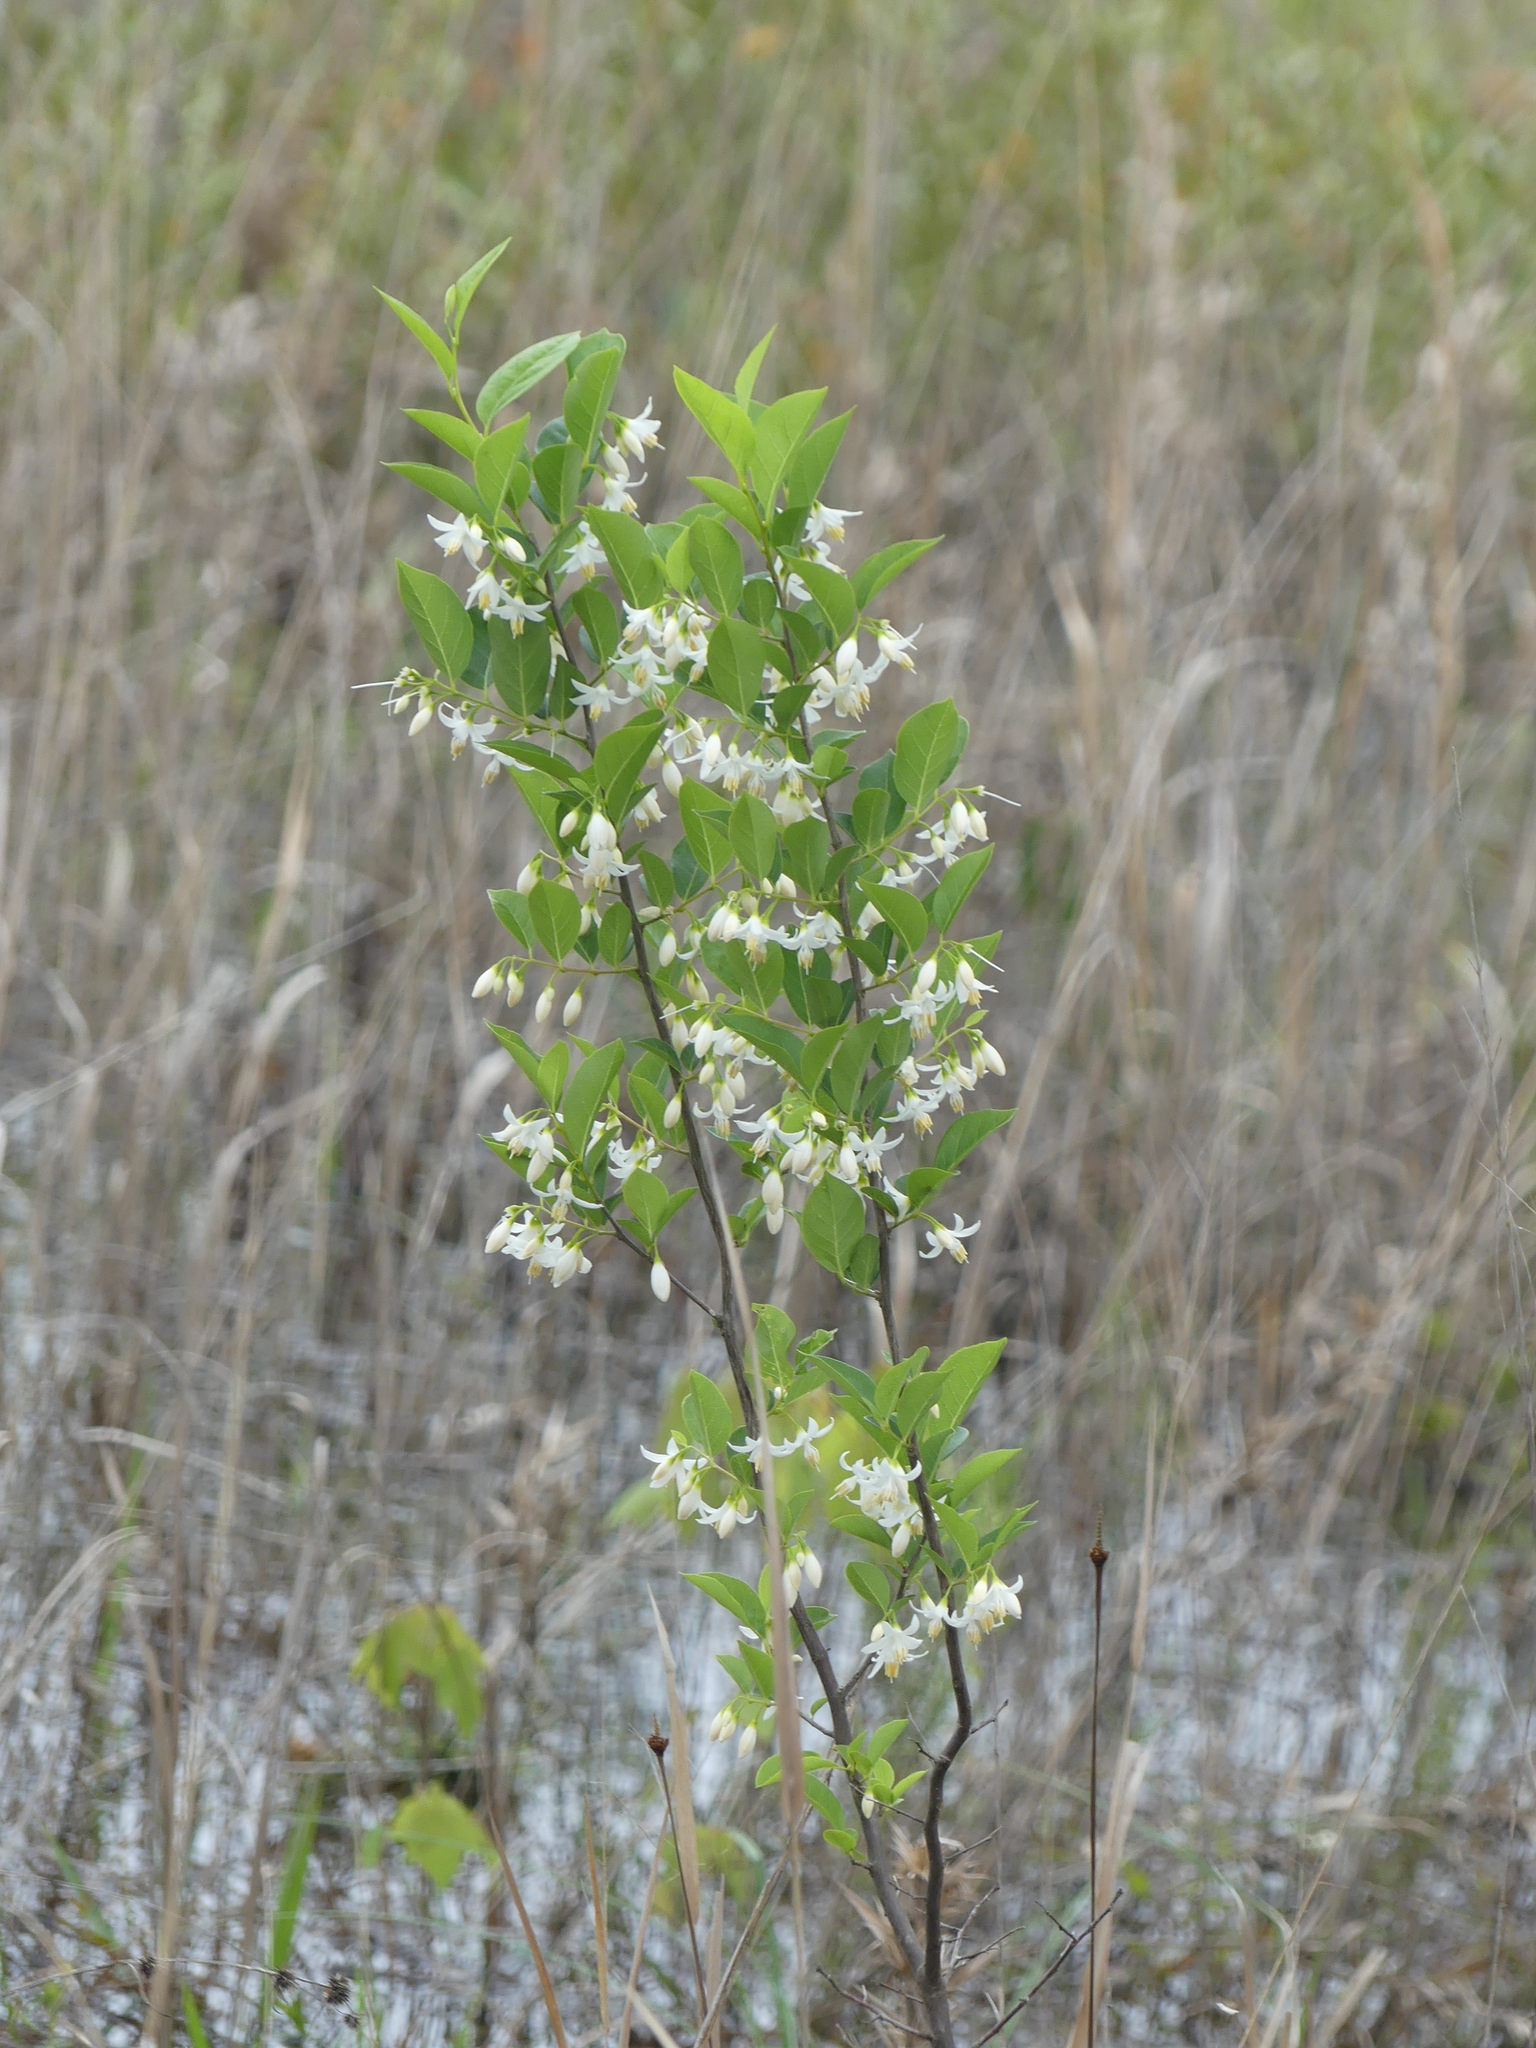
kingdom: Plantae
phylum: Tracheophyta
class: Magnoliopsida
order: Ericales
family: Styracaceae
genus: Styrax
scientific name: Styrax americanus
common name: American snowbell
